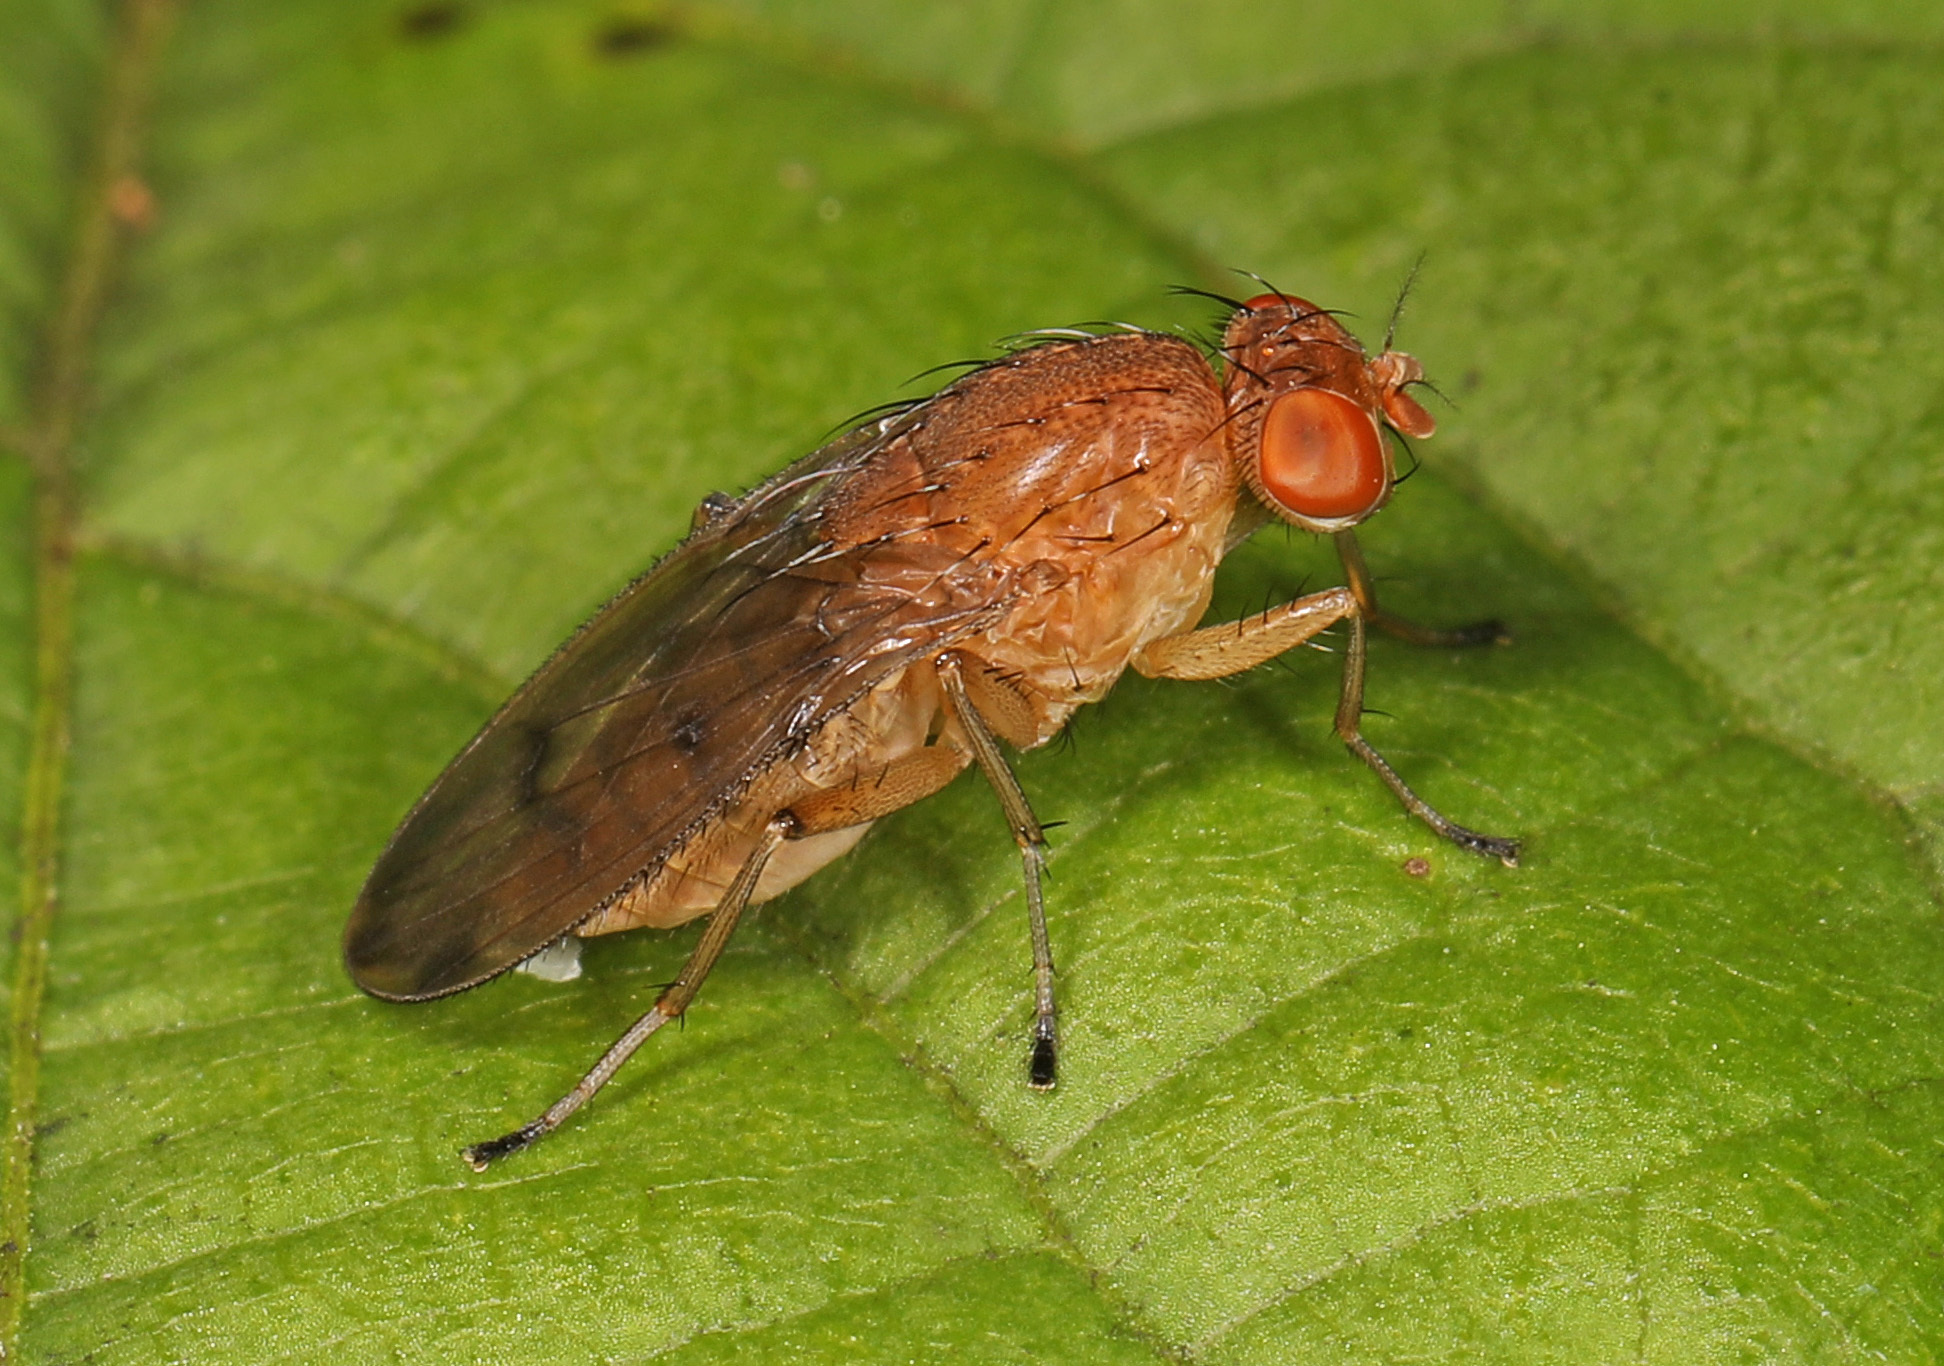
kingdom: Animalia
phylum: Arthropoda
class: Insecta
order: Diptera
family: Heleomyzidae
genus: Suillia
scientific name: Suillia quinquepunctata
